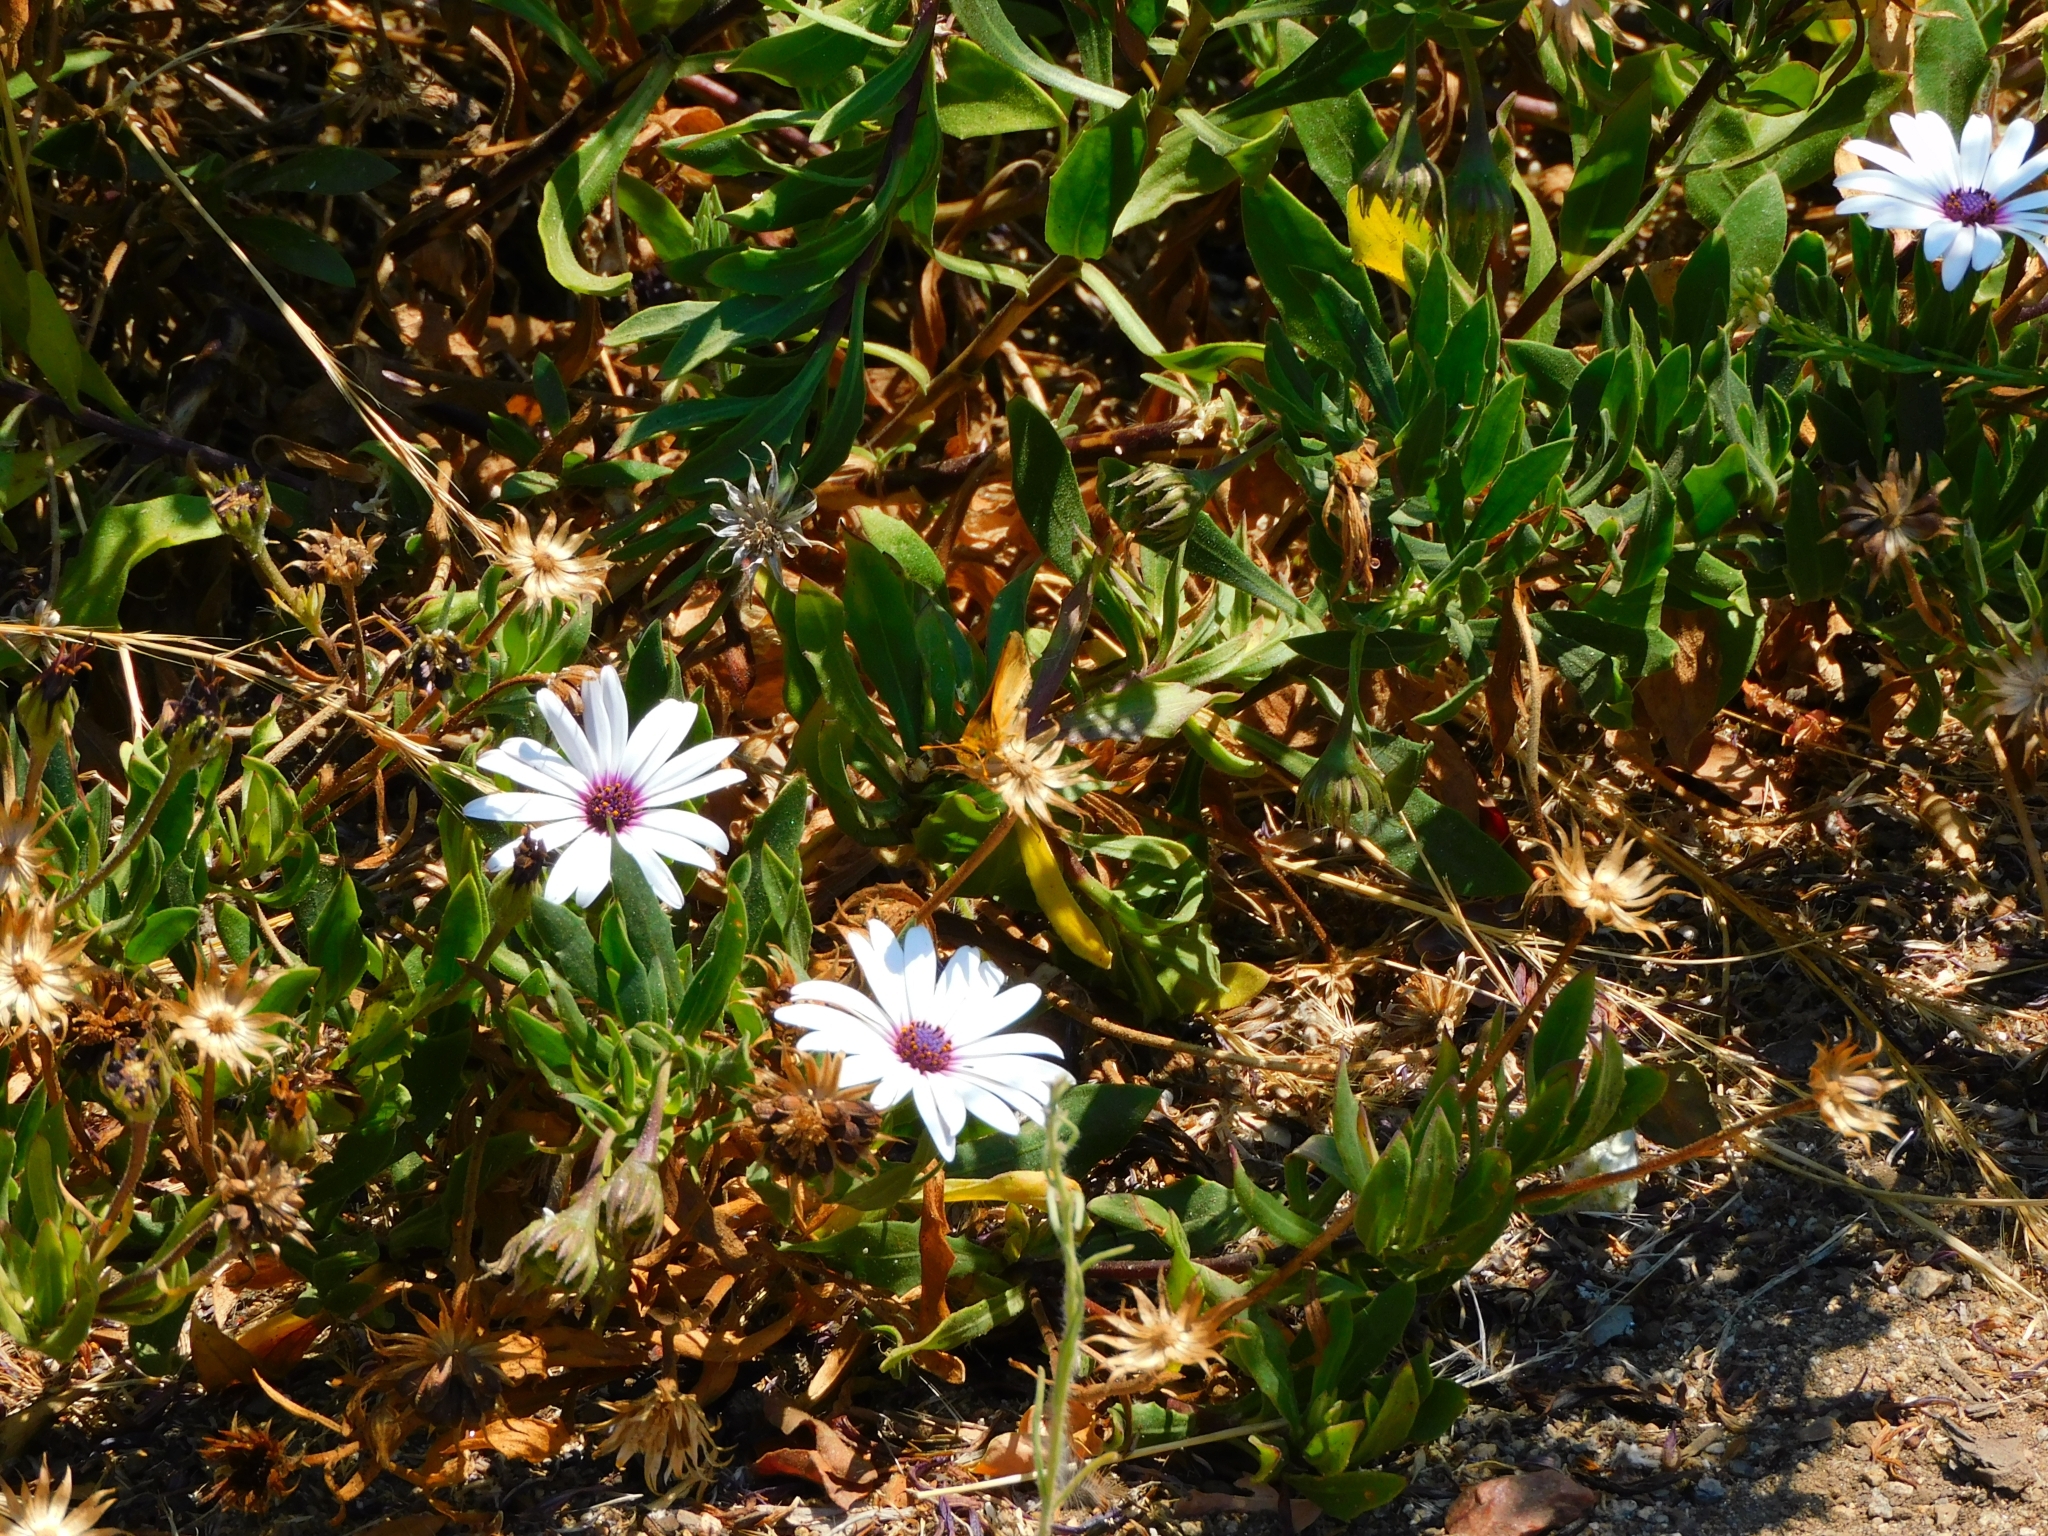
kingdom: Animalia
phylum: Arthropoda
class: Insecta
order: Lepidoptera
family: Hesperiidae
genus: Hylephila
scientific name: Hylephila fasciolata
